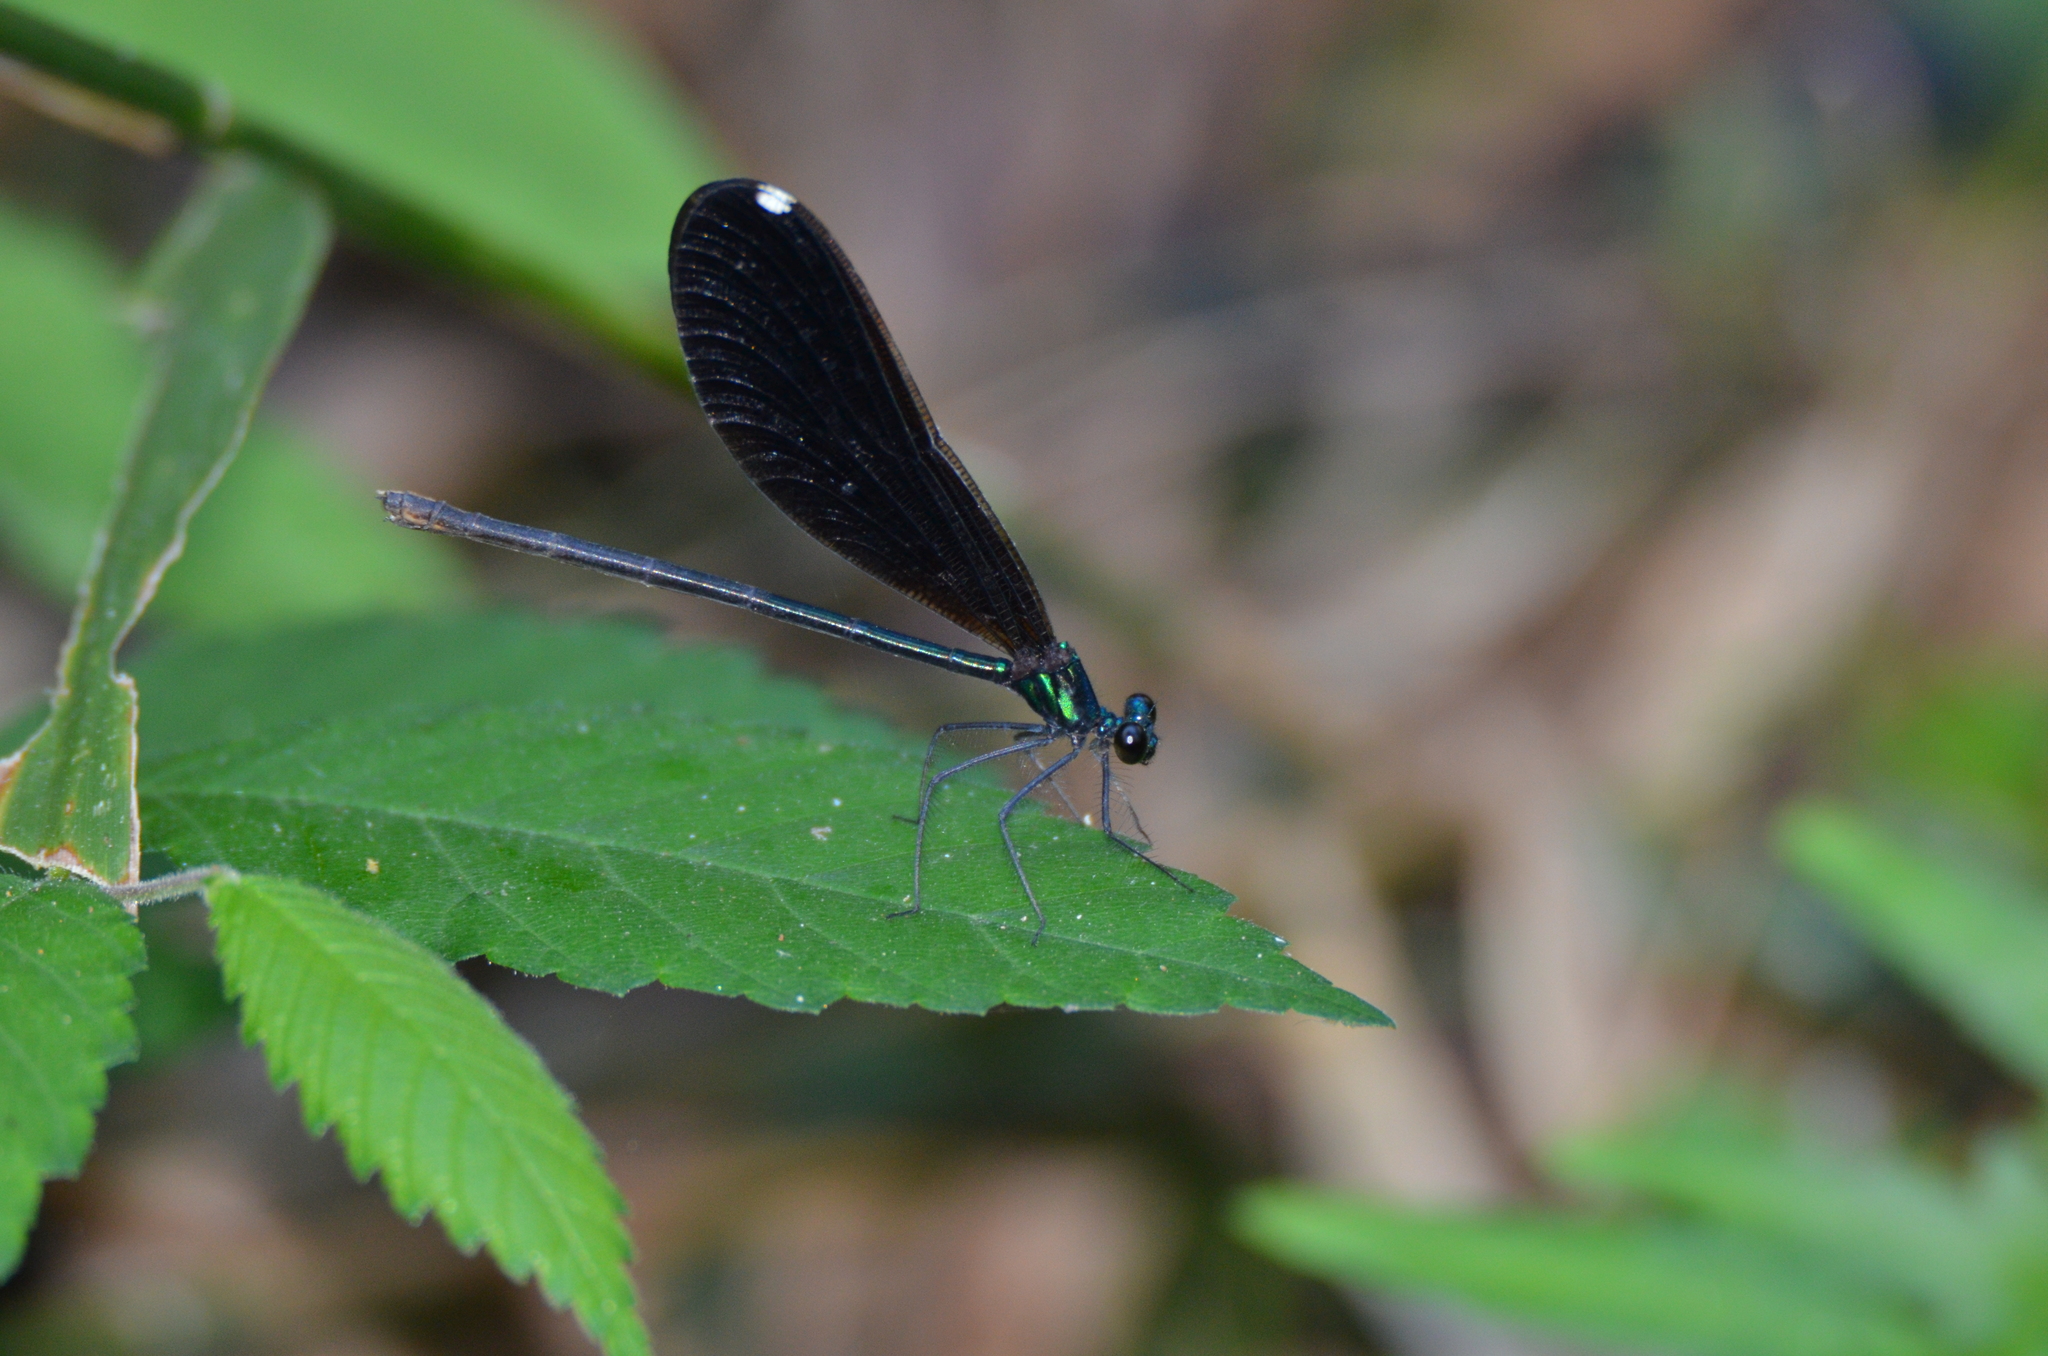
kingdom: Animalia
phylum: Arthropoda
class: Insecta
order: Odonata
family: Calopterygidae
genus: Calopteryx
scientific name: Calopteryx maculata
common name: Ebony jewelwing
